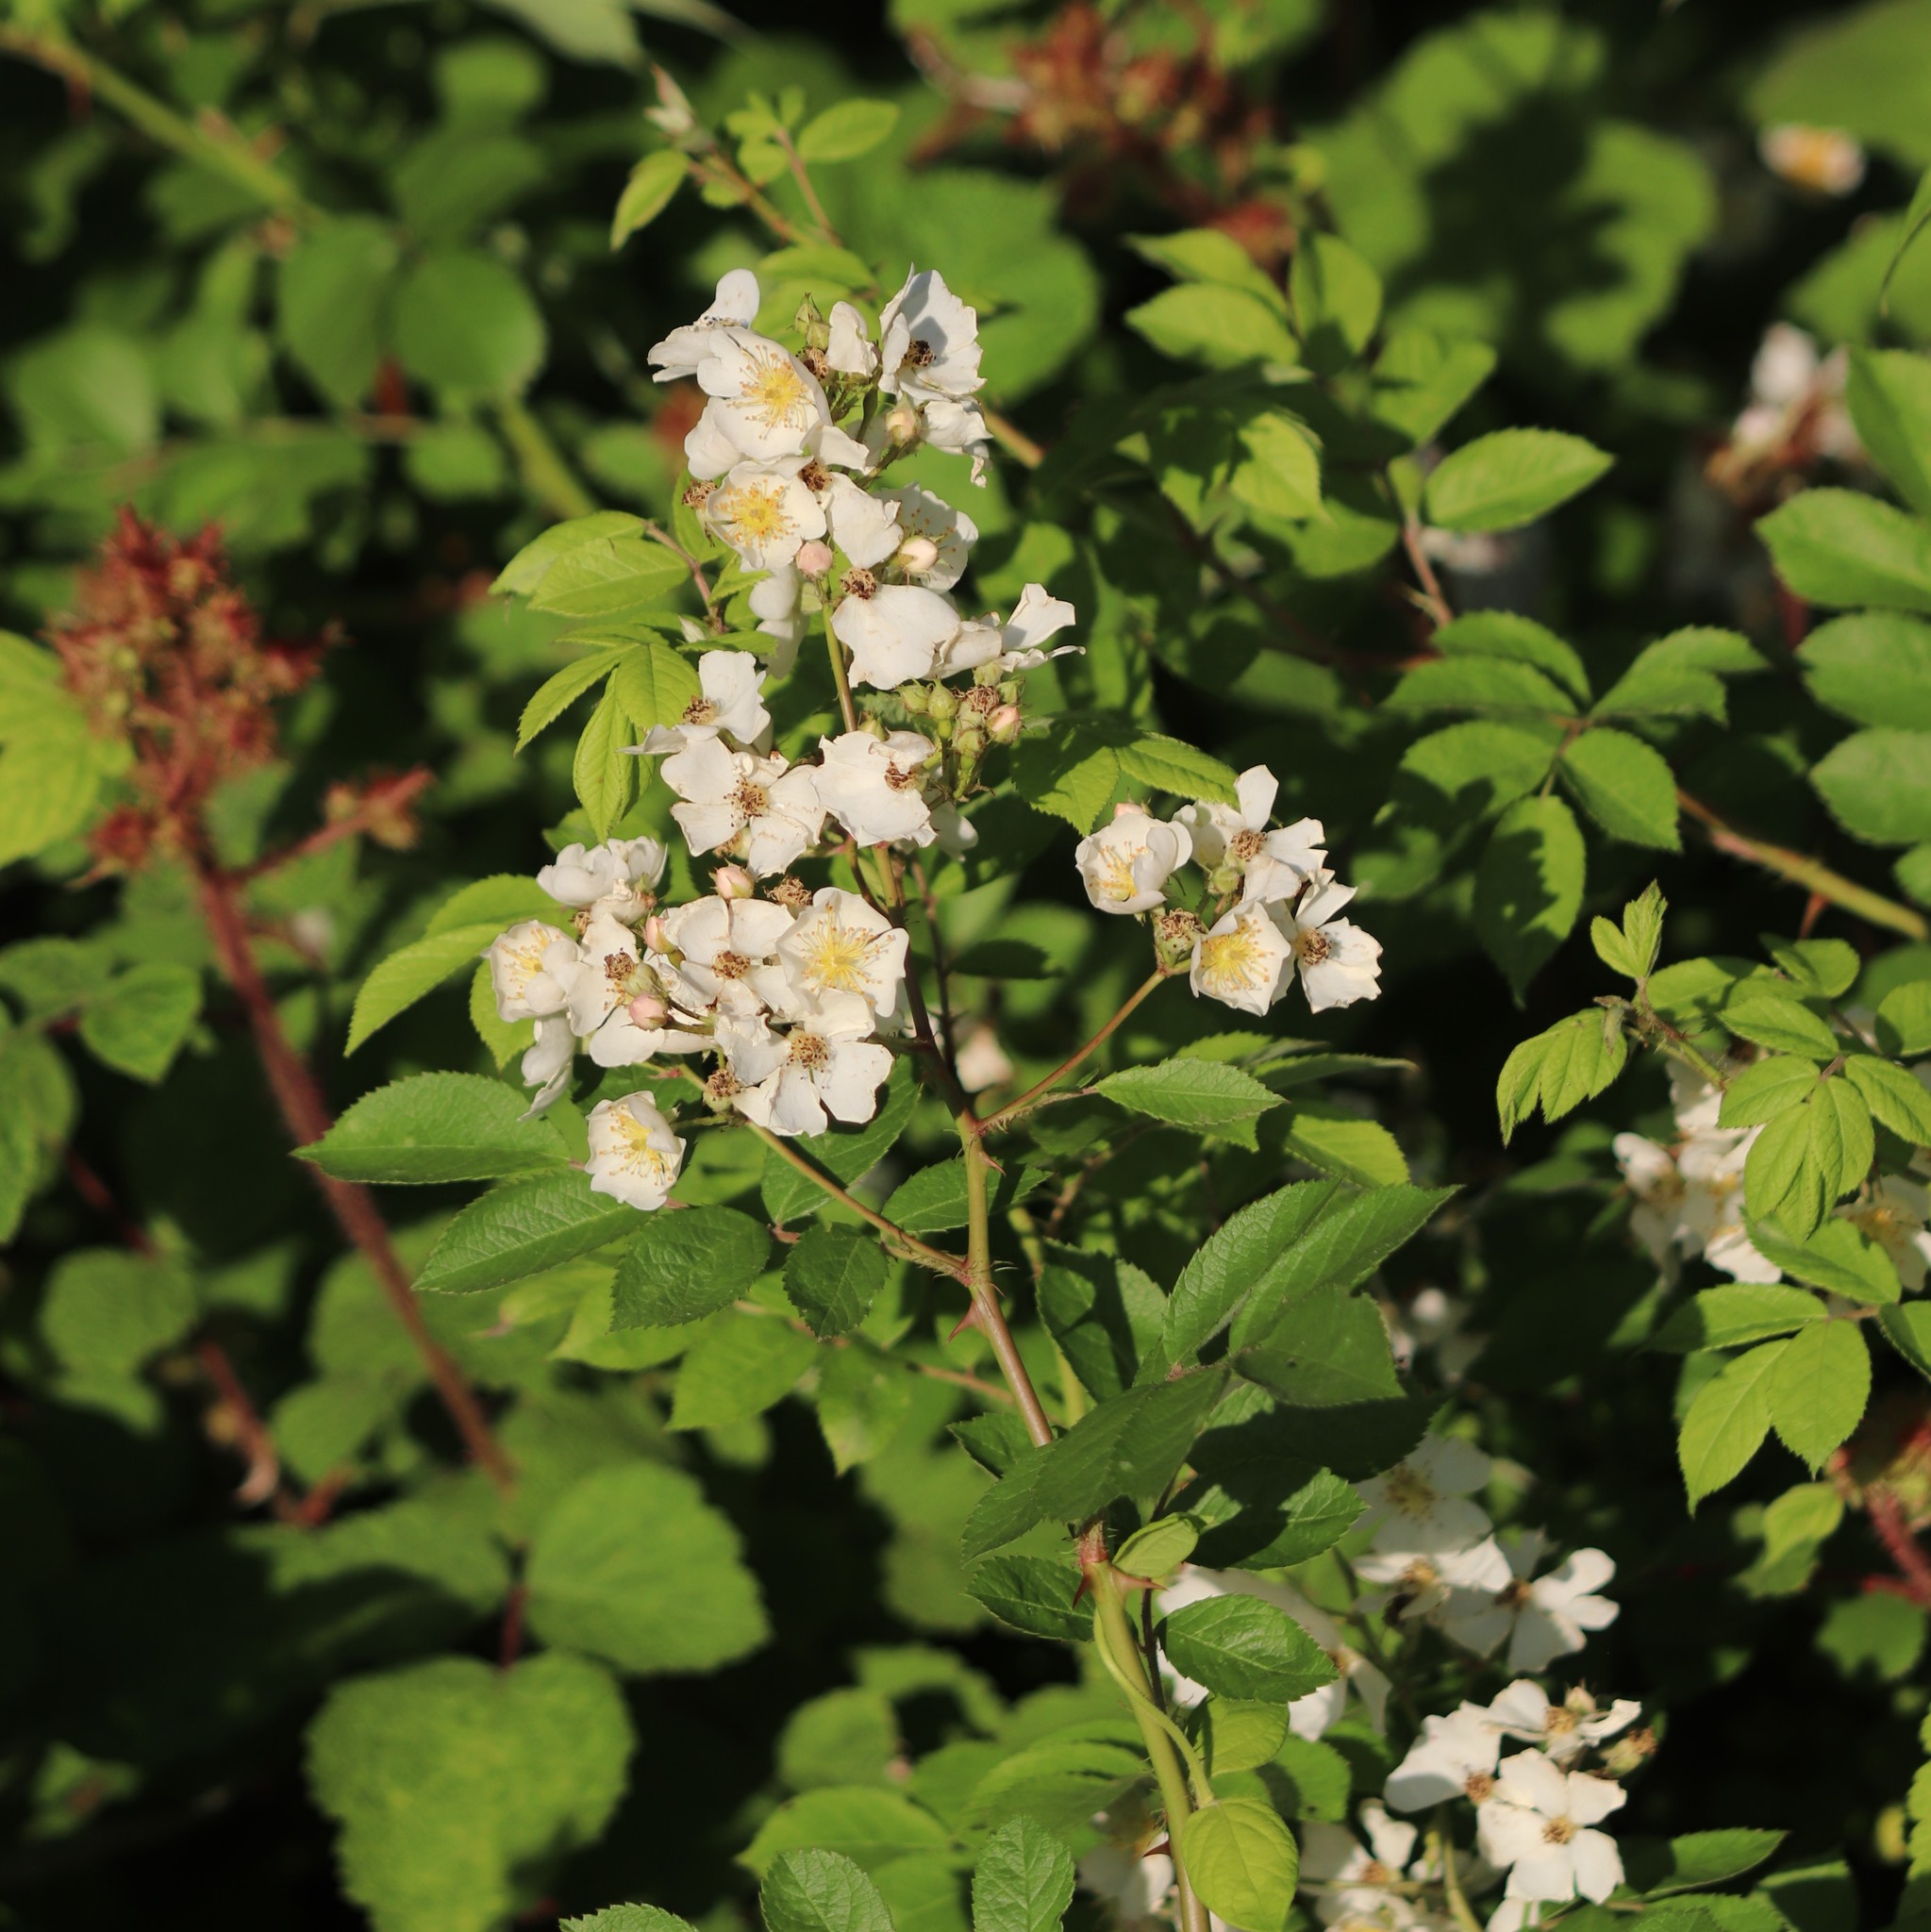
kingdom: Plantae
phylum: Tracheophyta
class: Magnoliopsida
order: Rosales
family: Rosaceae
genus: Rosa
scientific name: Rosa multiflora
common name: Multiflora rose
